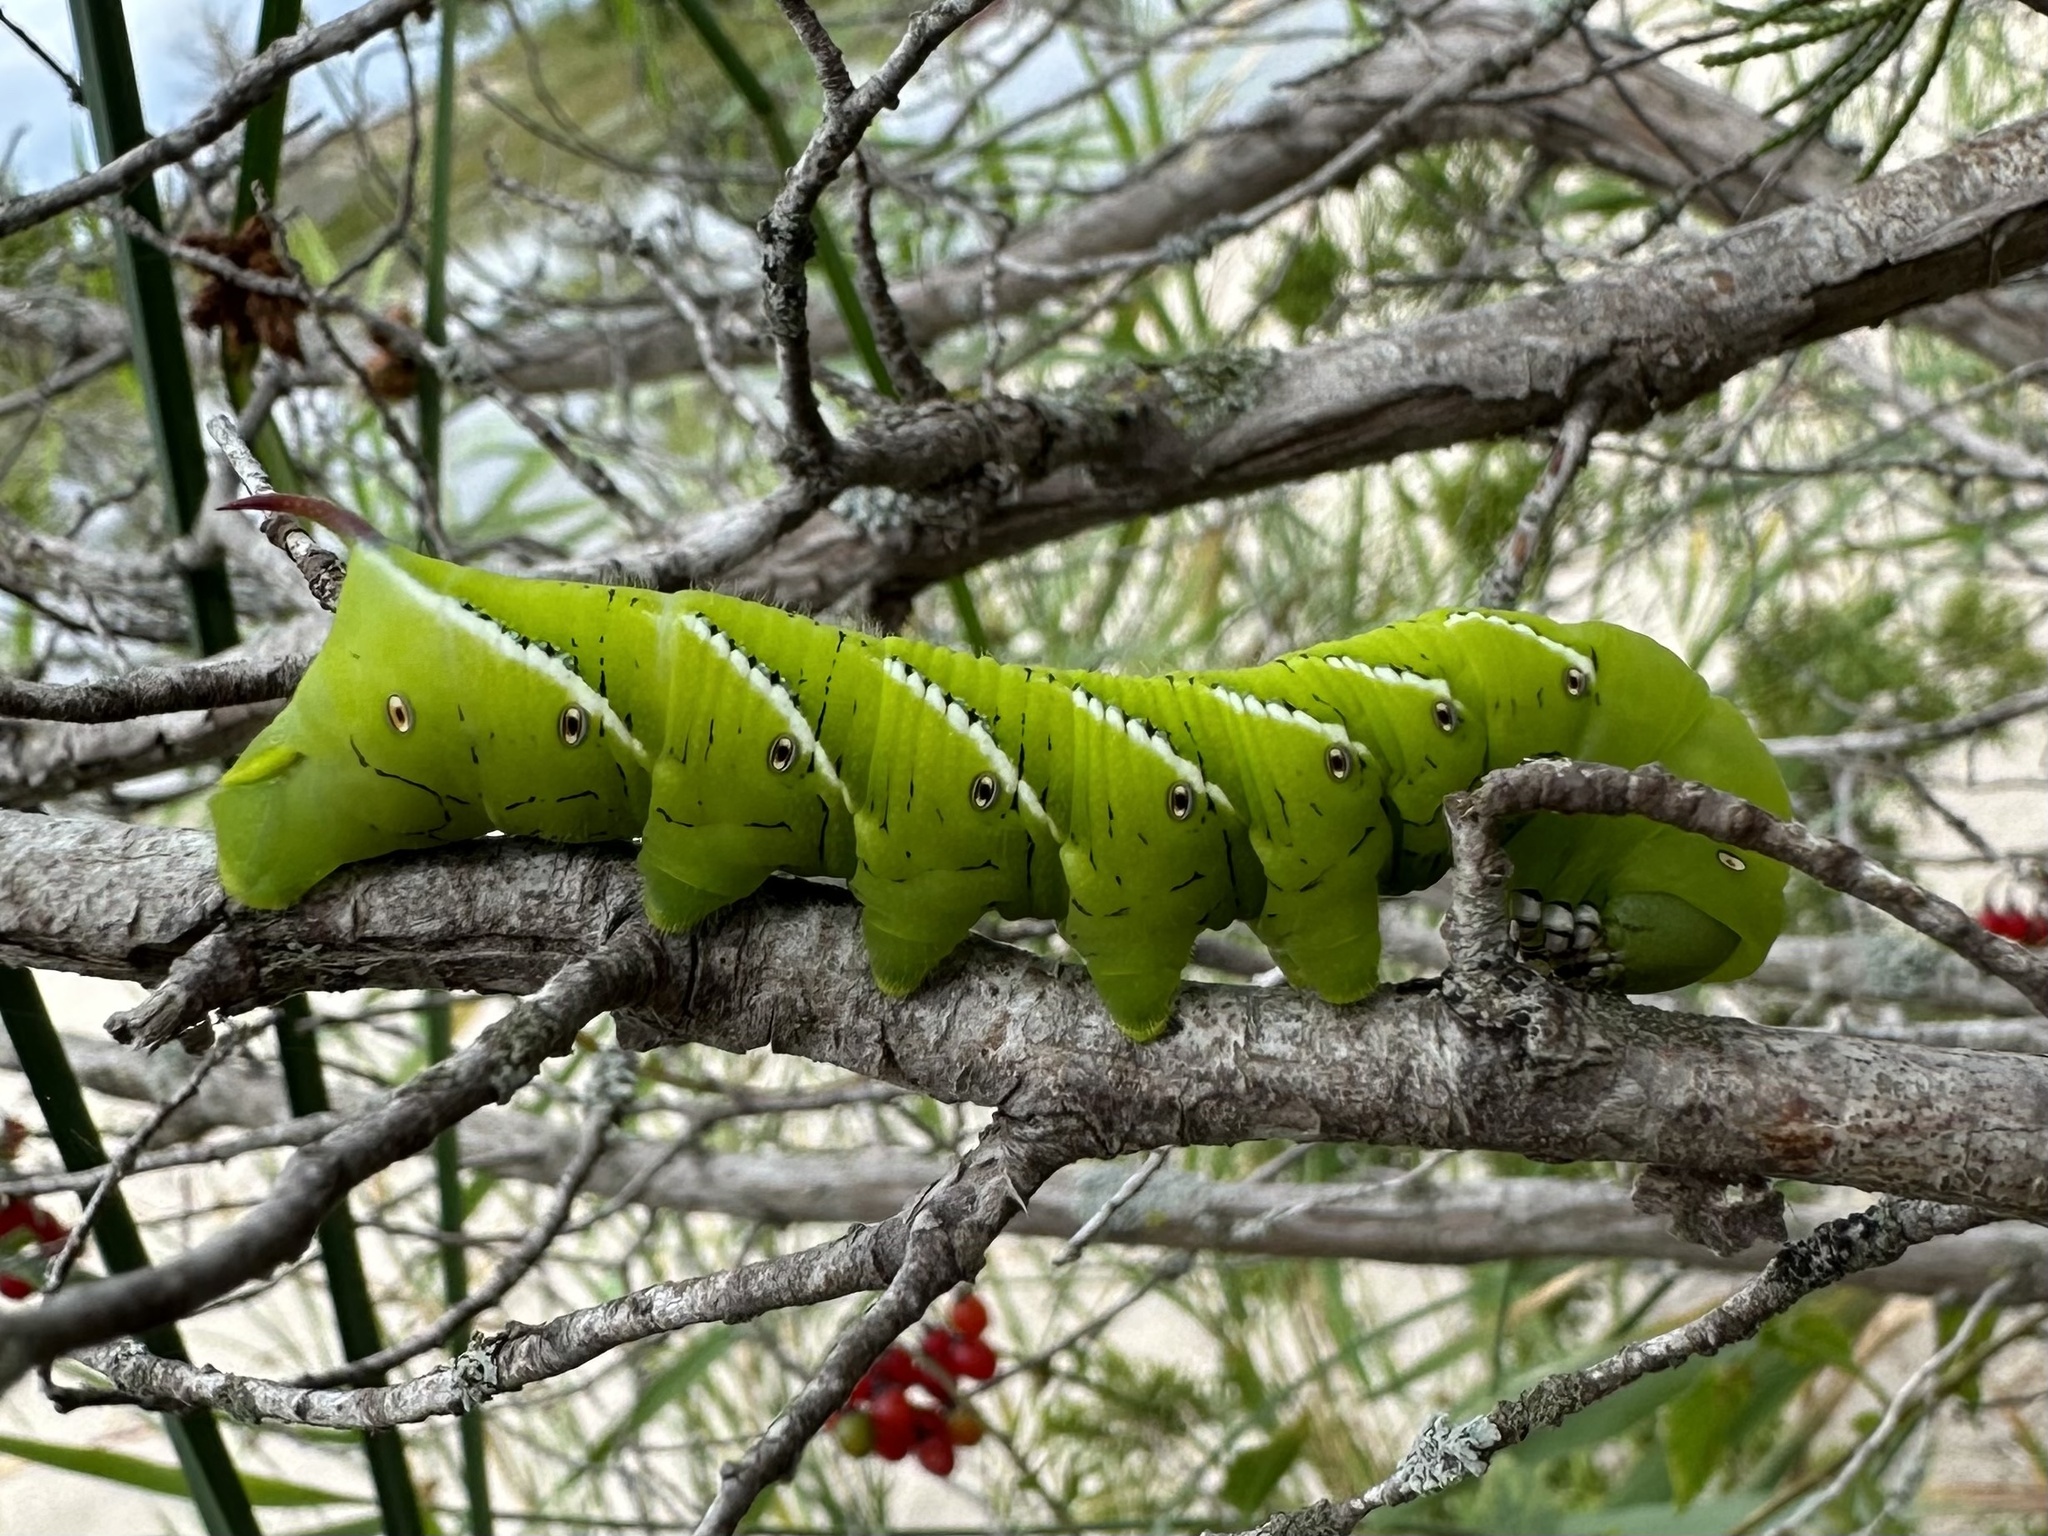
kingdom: Animalia
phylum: Arthropoda
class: Insecta
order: Lepidoptera
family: Sphingidae
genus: Manduca
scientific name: Manduca sexta
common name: Carolina sphinx
